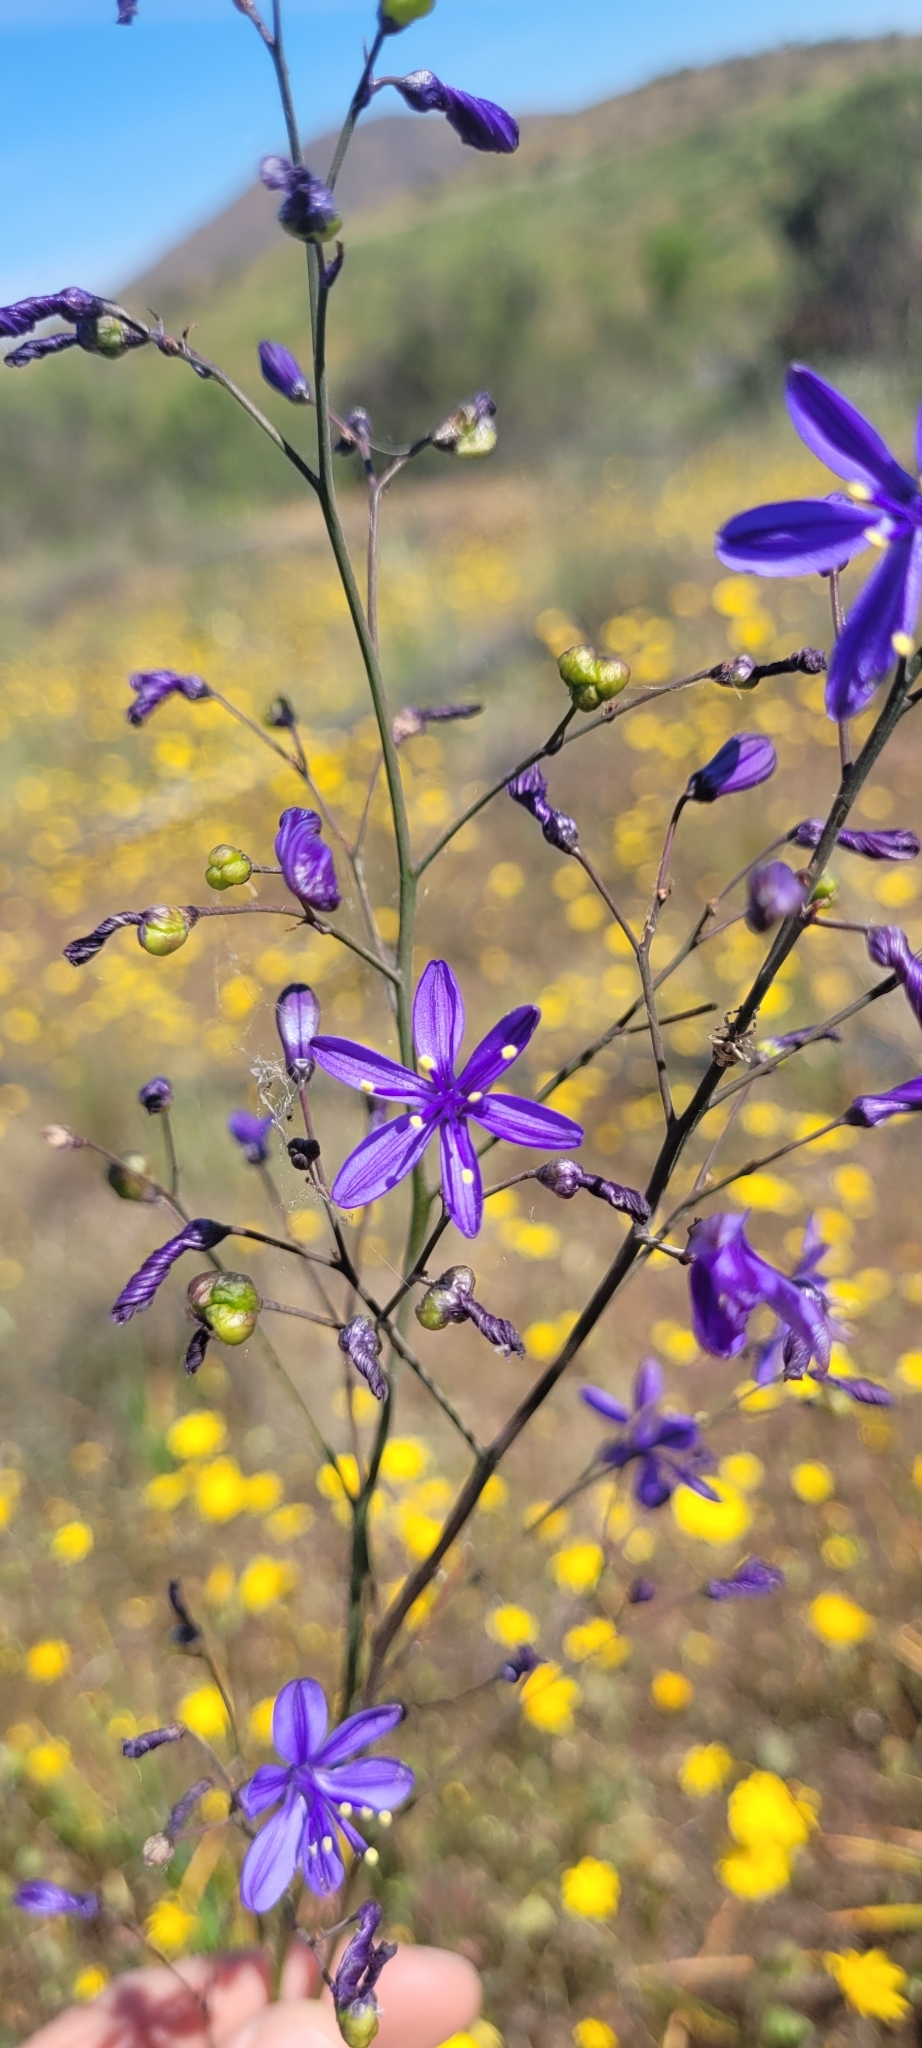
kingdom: Plantae
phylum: Tracheophyta
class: Liliopsida
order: Asparagales
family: Asphodelaceae
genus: Pasithea
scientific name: Pasithea caerulea
